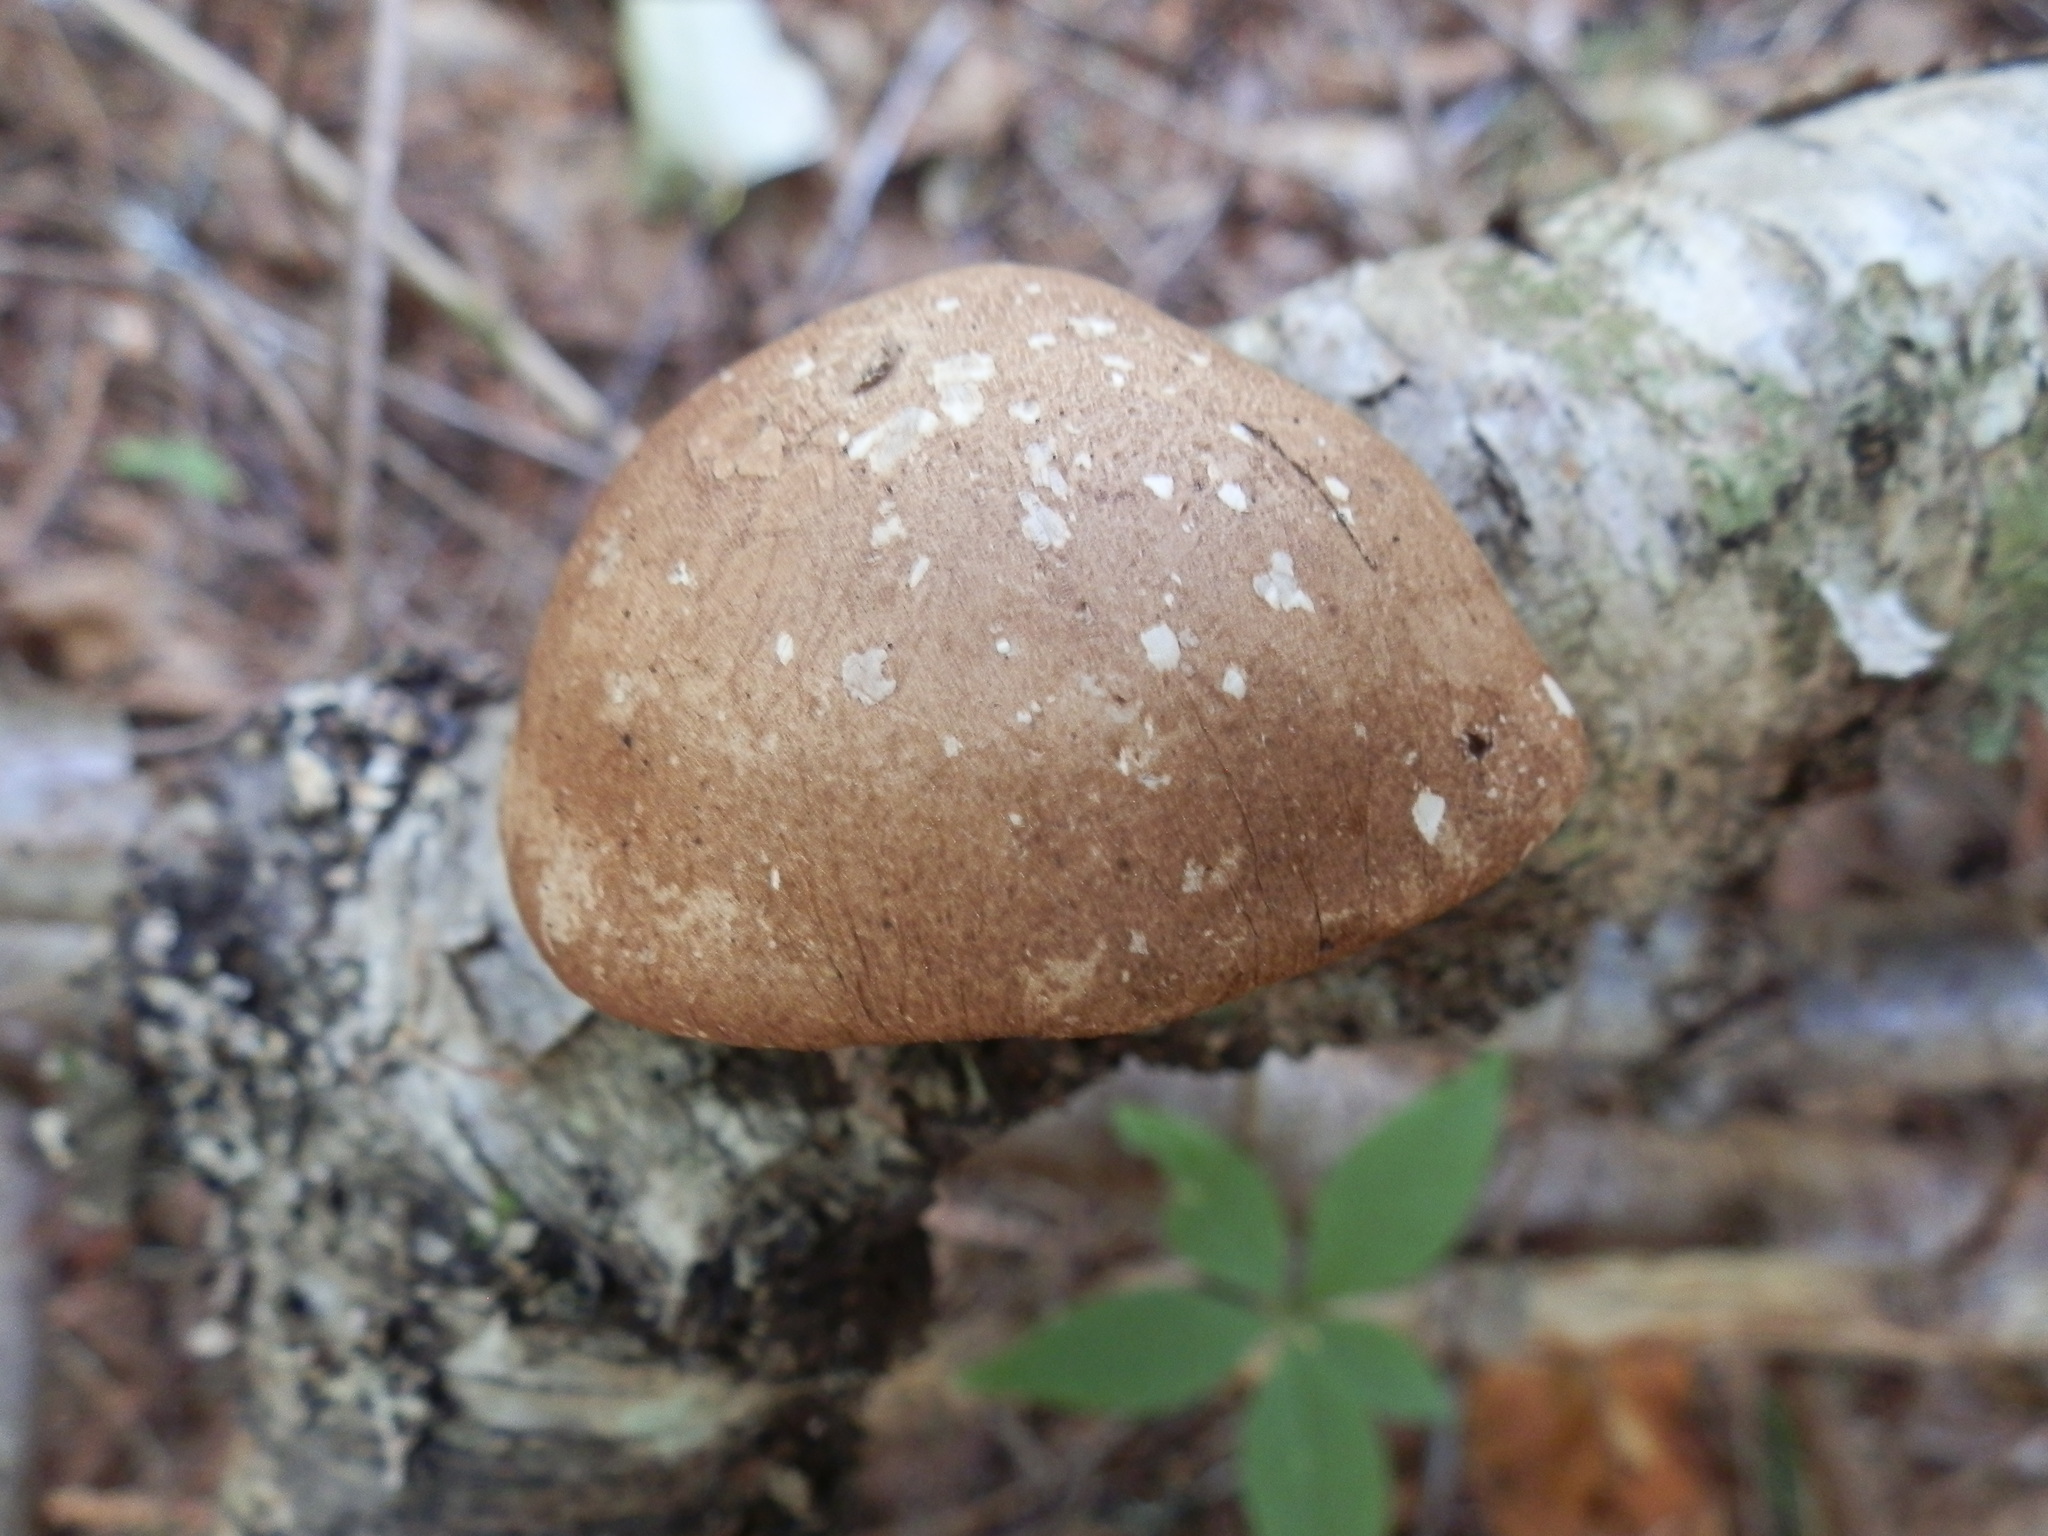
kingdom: Fungi
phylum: Basidiomycota
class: Agaricomycetes
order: Polyporales
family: Fomitopsidaceae
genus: Fomitopsis
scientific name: Fomitopsis betulina
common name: Birch polypore
